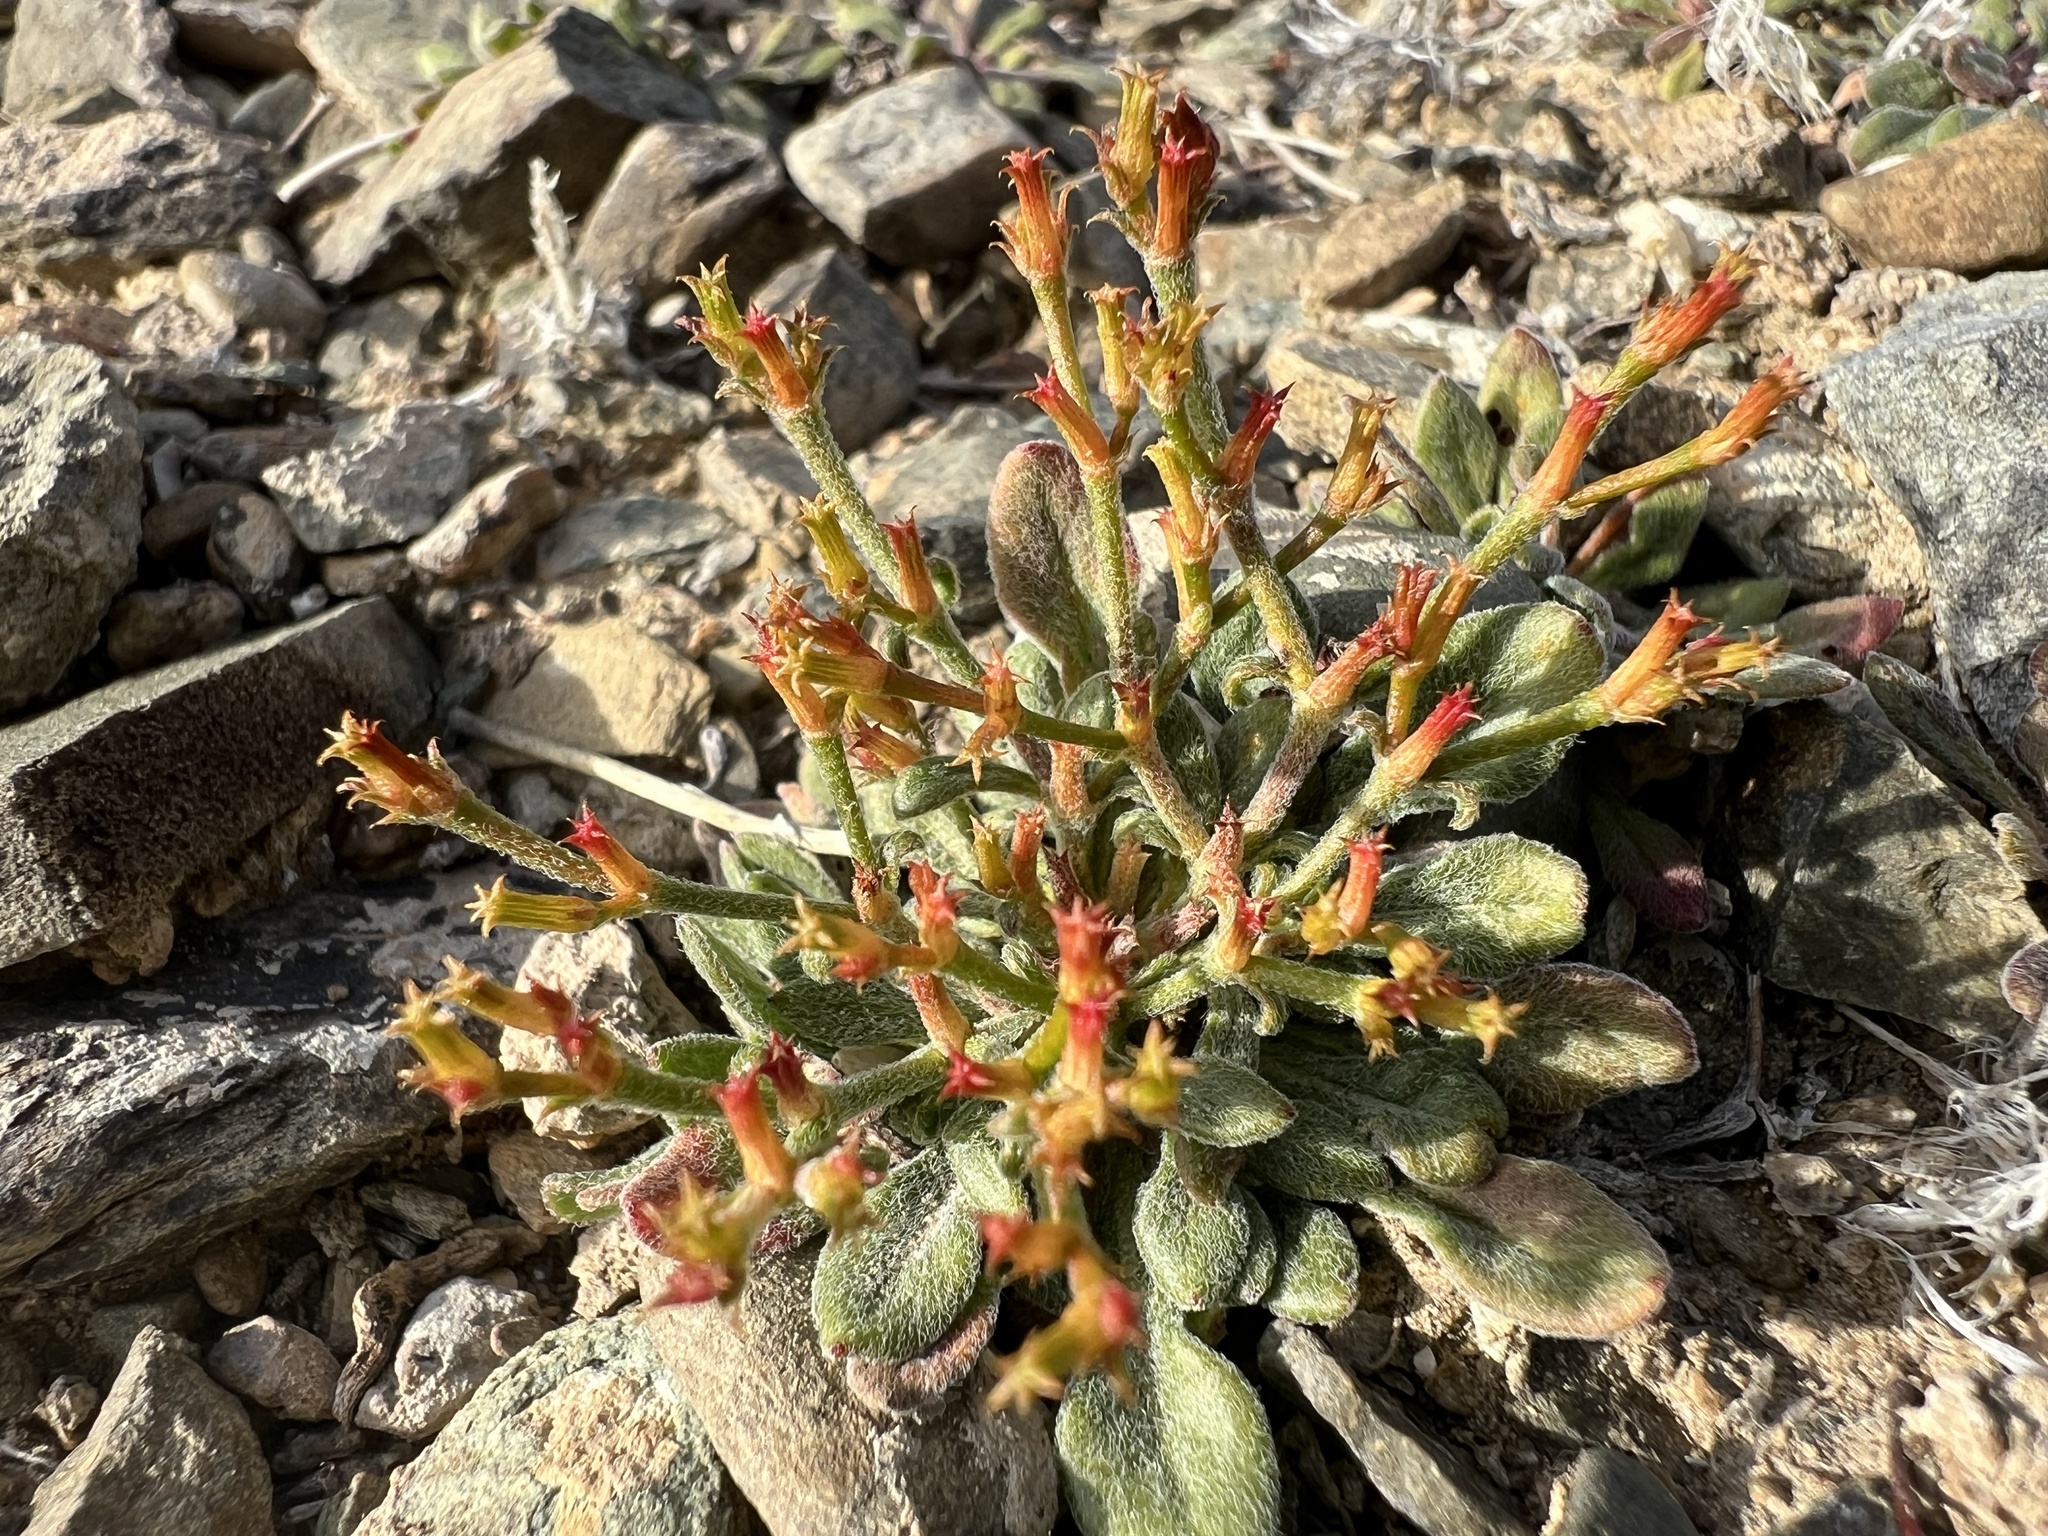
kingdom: Plantae
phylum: Tracheophyta
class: Magnoliopsida
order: Caryophyllales
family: Polygonaceae
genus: Chorizanthe
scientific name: Chorizanthe brevicornu
